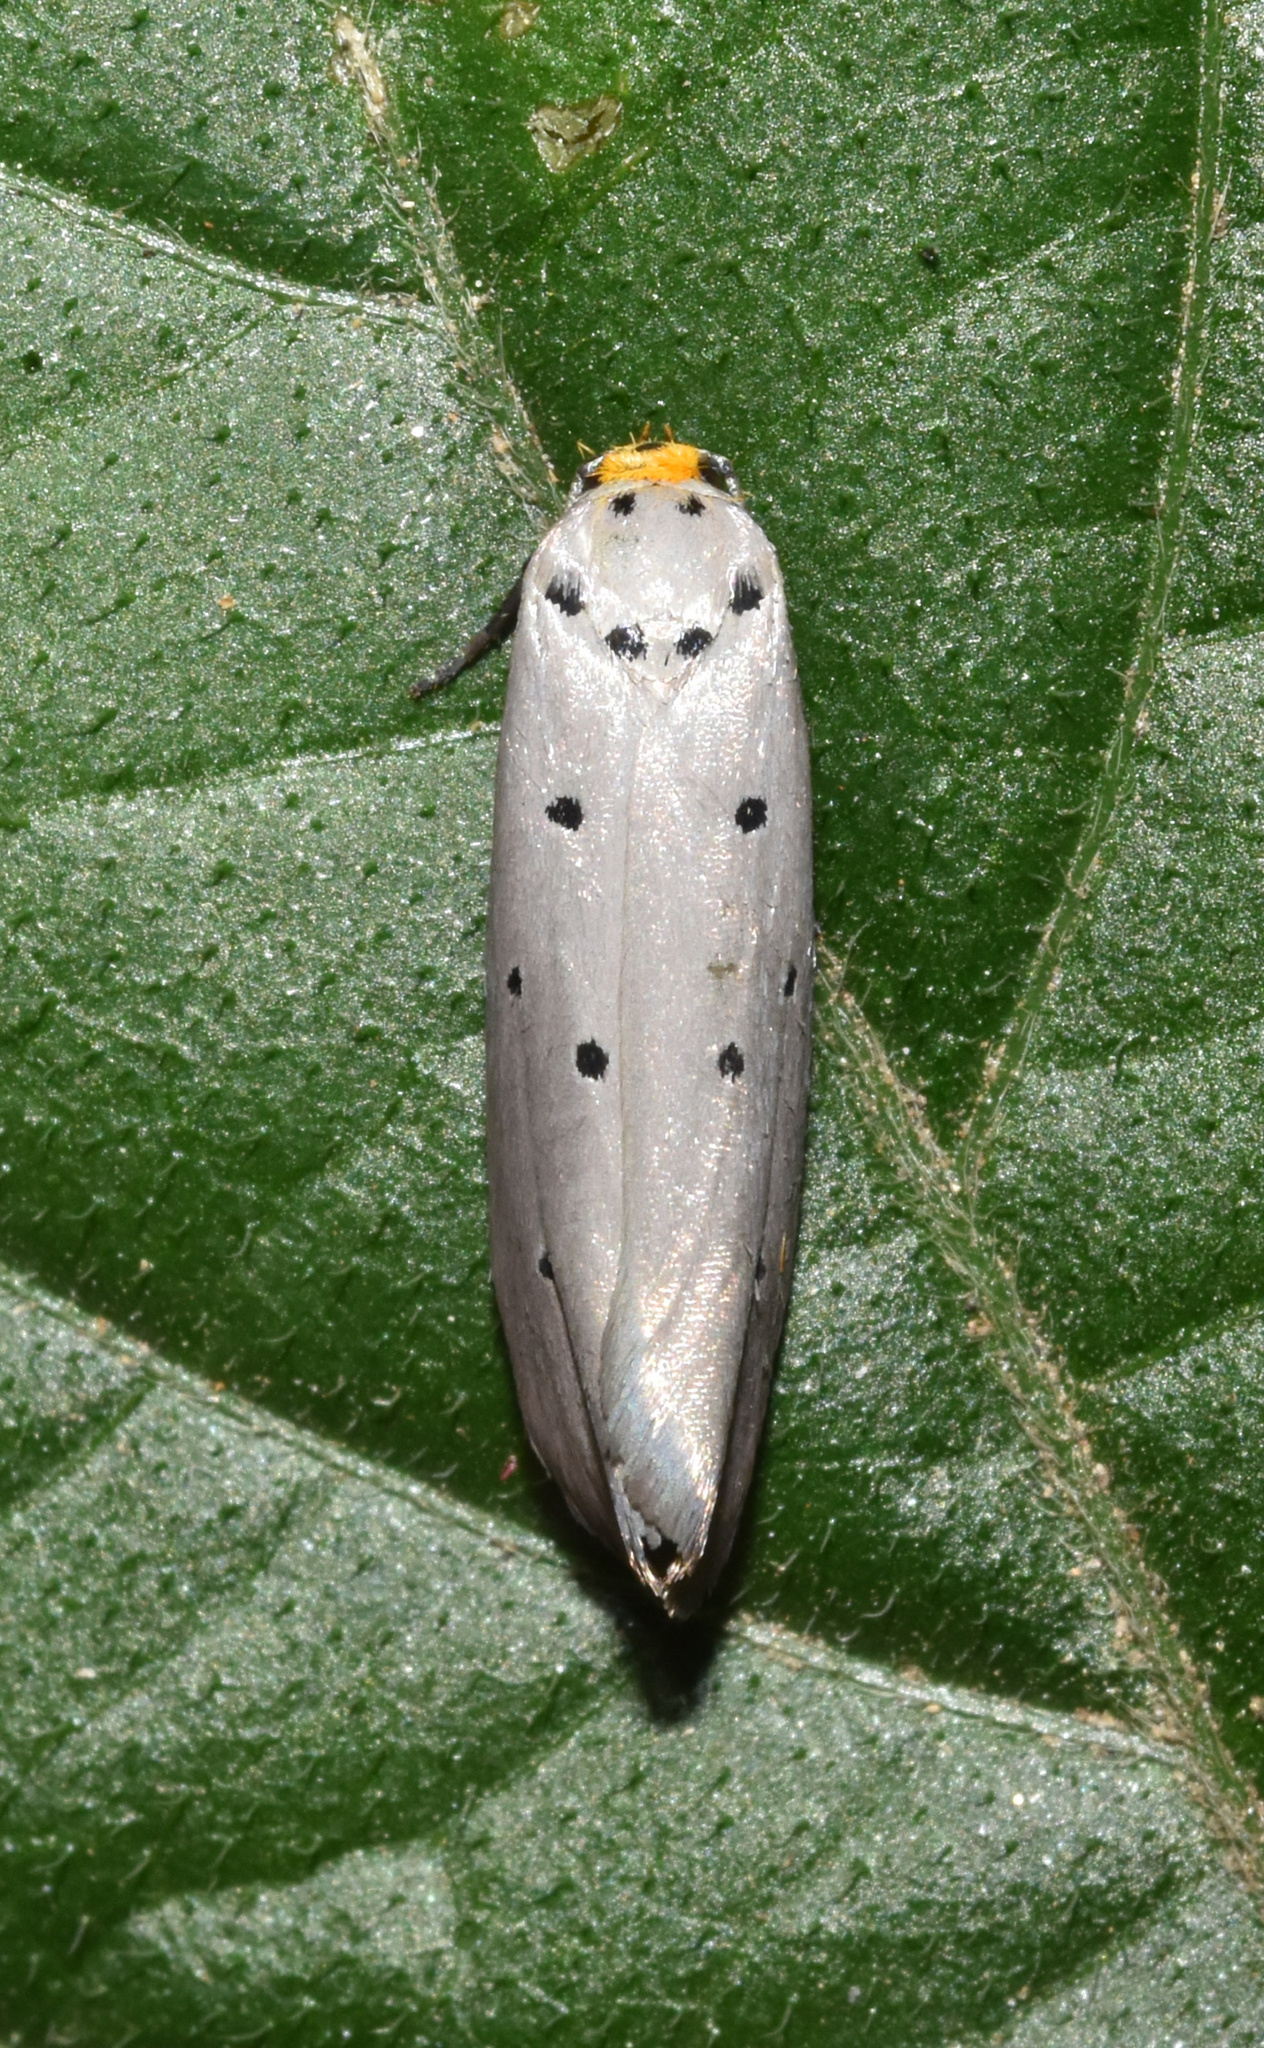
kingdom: Animalia
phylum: Arthropoda
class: Insecta
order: Lepidoptera
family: Ethmiidae
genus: Ethmia
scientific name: Ethmia rhomboidella
